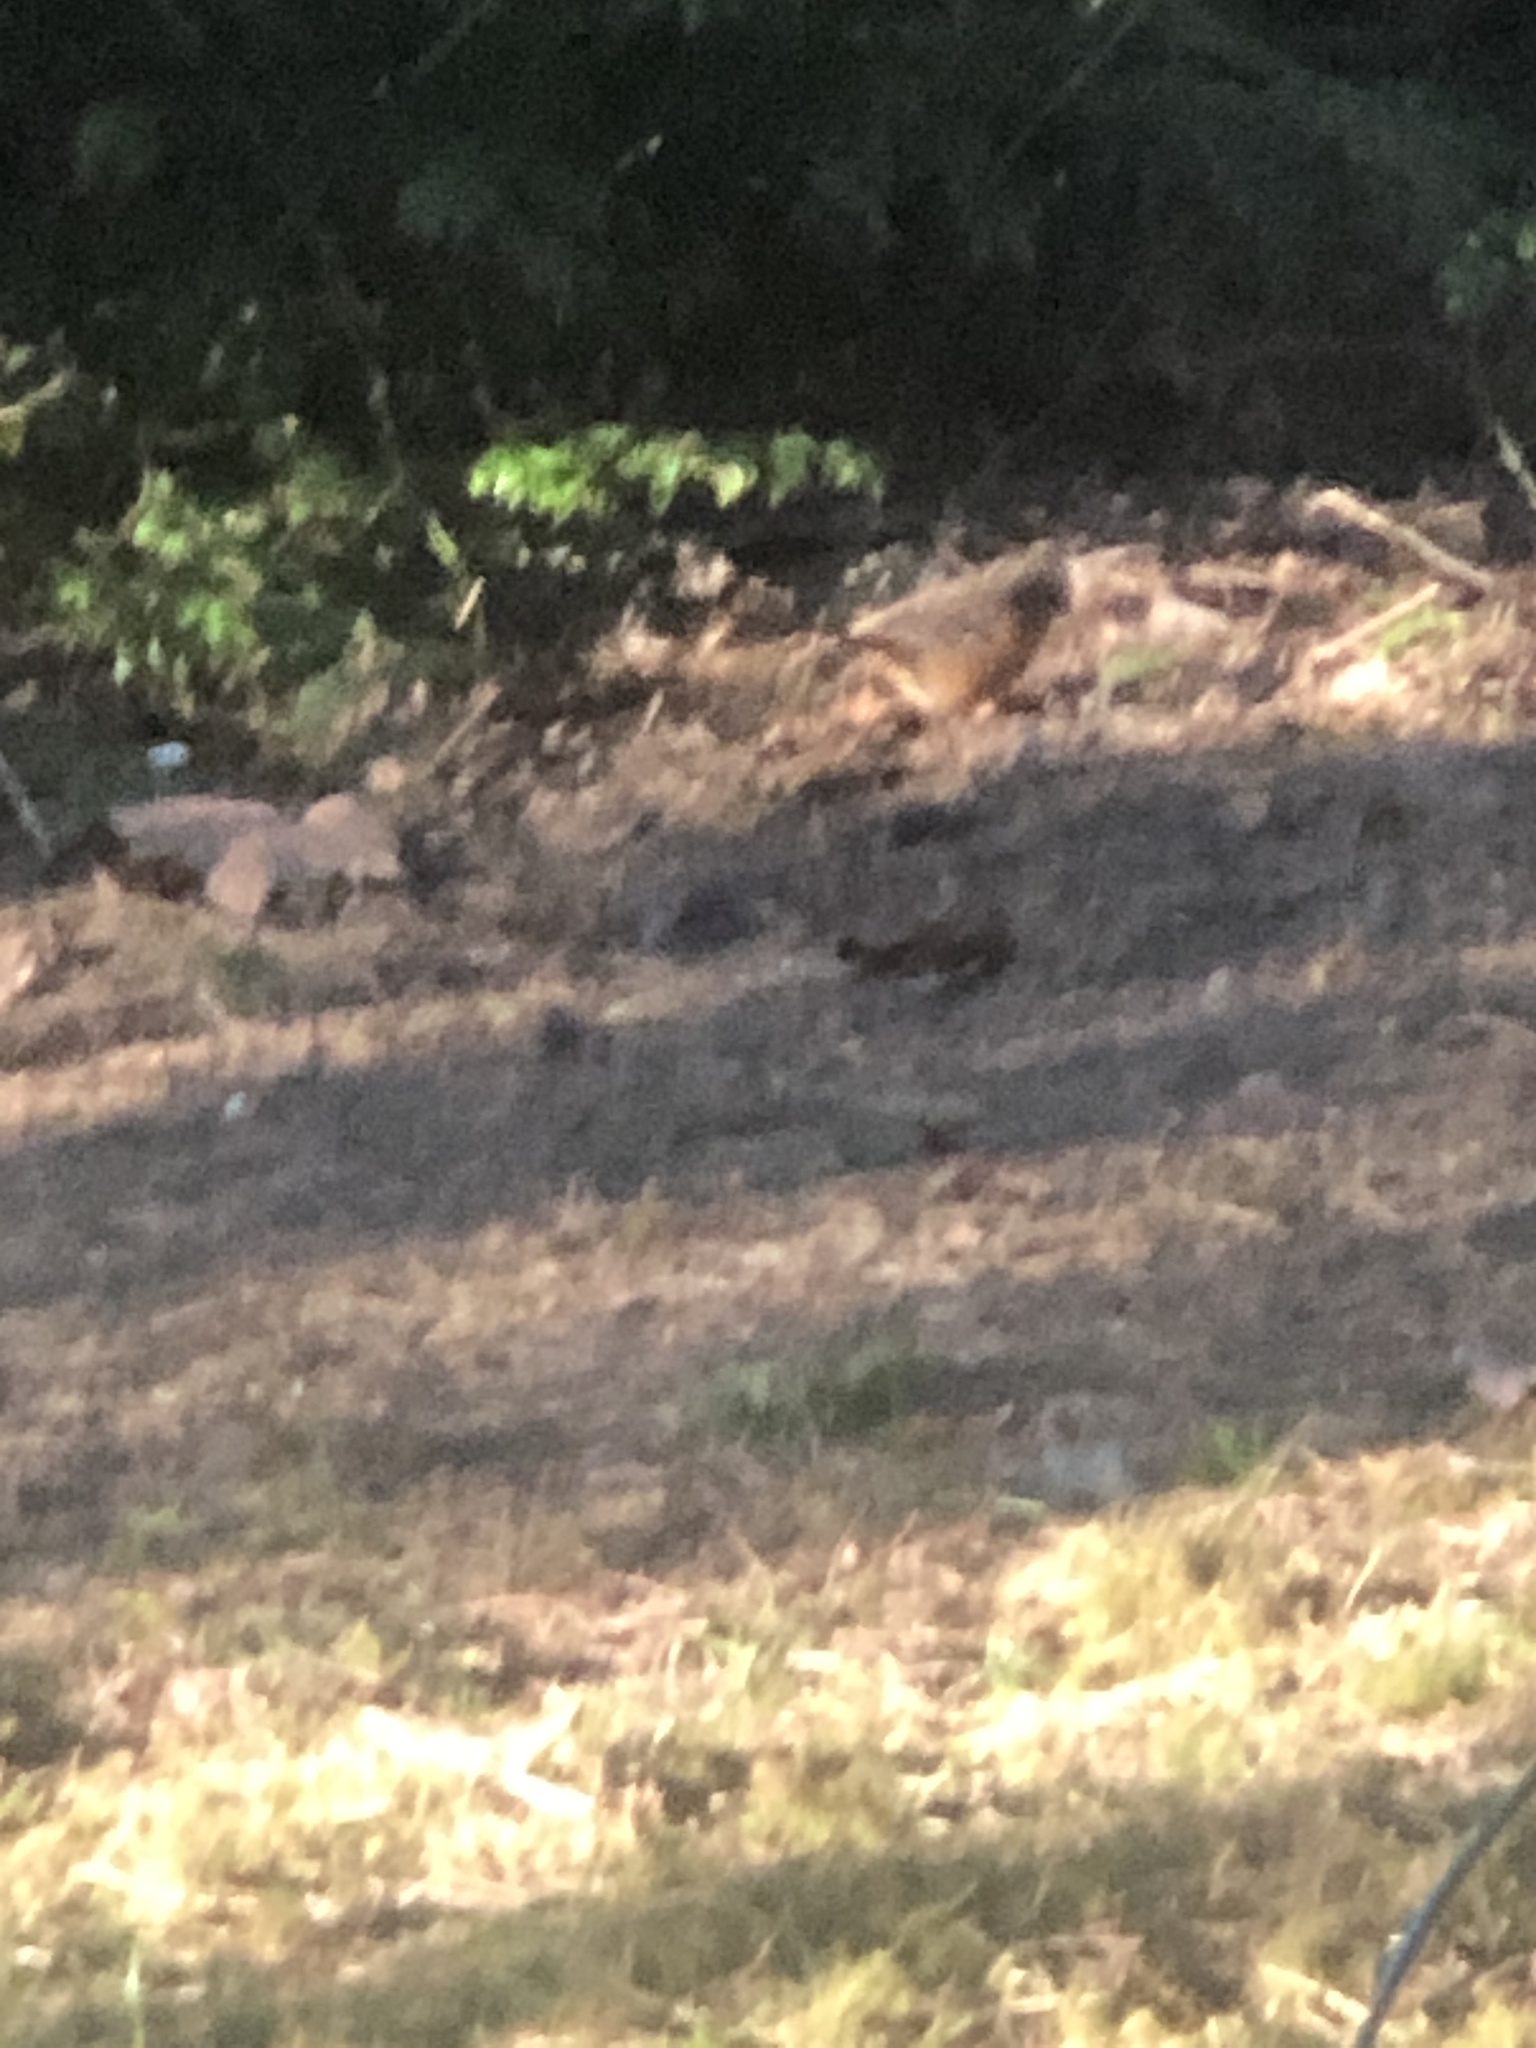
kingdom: Animalia
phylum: Chordata
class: Aves
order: Passeriformes
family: Passerellidae
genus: Pipilo
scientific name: Pipilo maculatus
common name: Spotted towhee
